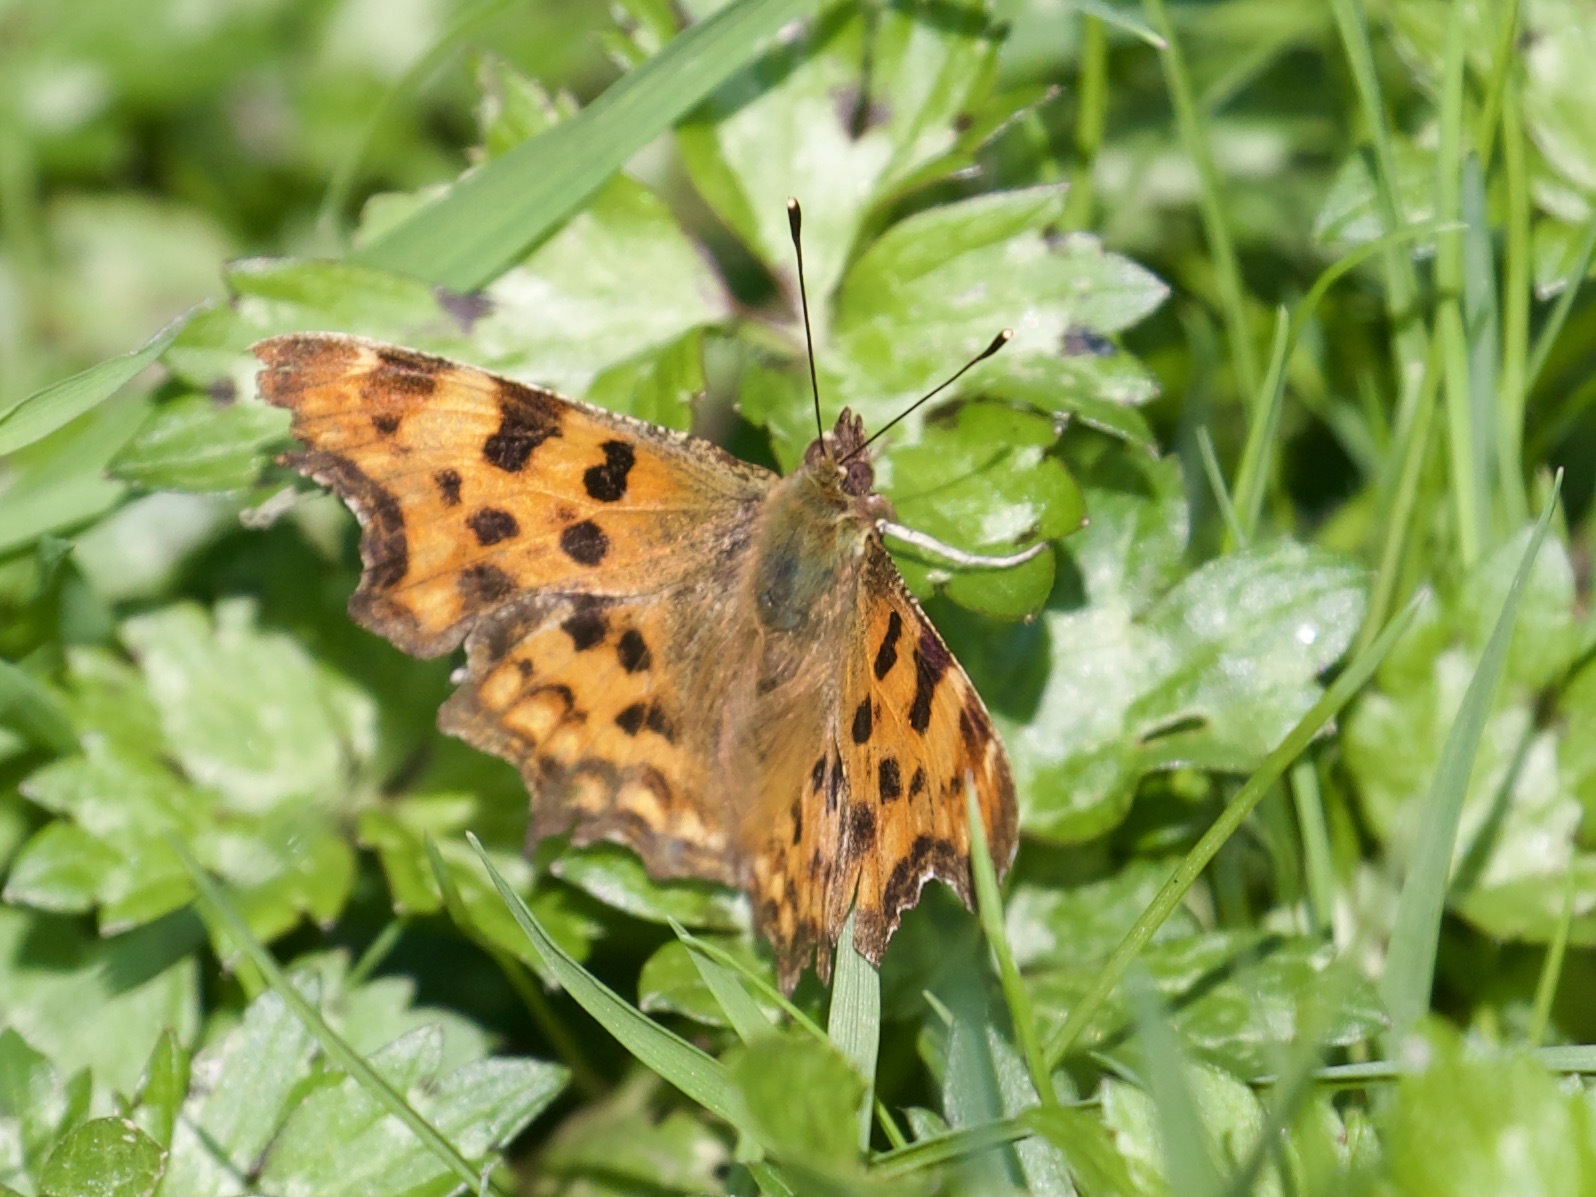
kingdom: Animalia
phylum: Arthropoda
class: Insecta
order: Lepidoptera
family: Nymphalidae
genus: Polygonia
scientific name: Polygonia c-album
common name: Comma
